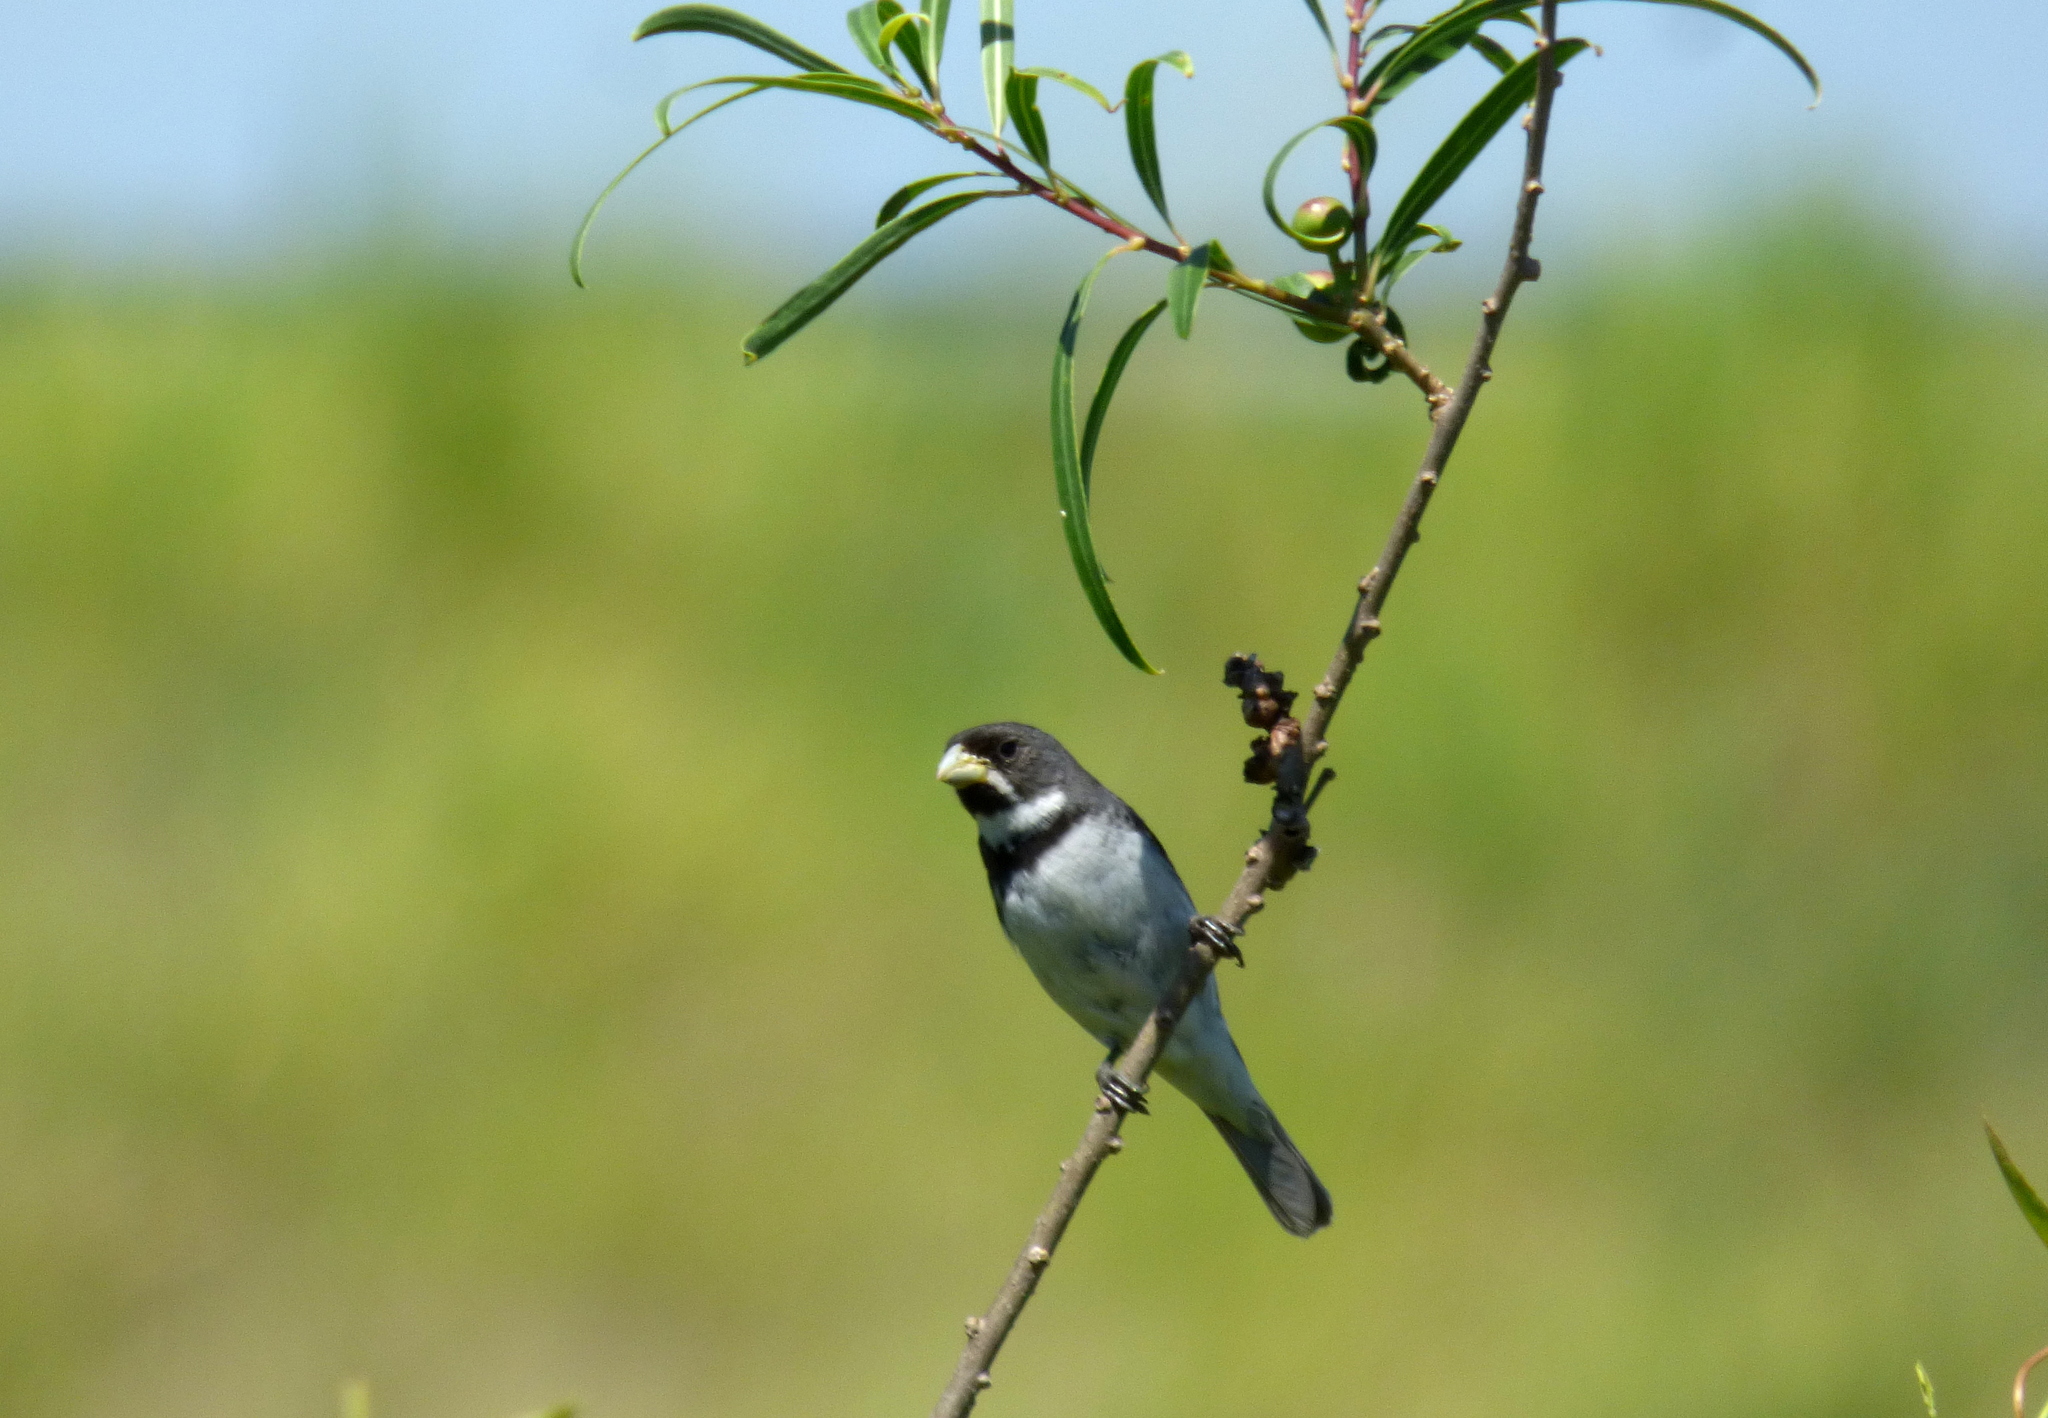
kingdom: Animalia
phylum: Chordata
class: Aves
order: Passeriformes
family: Thraupidae
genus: Sporophila
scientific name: Sporophila caerulescens
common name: Double-collared seedeater
